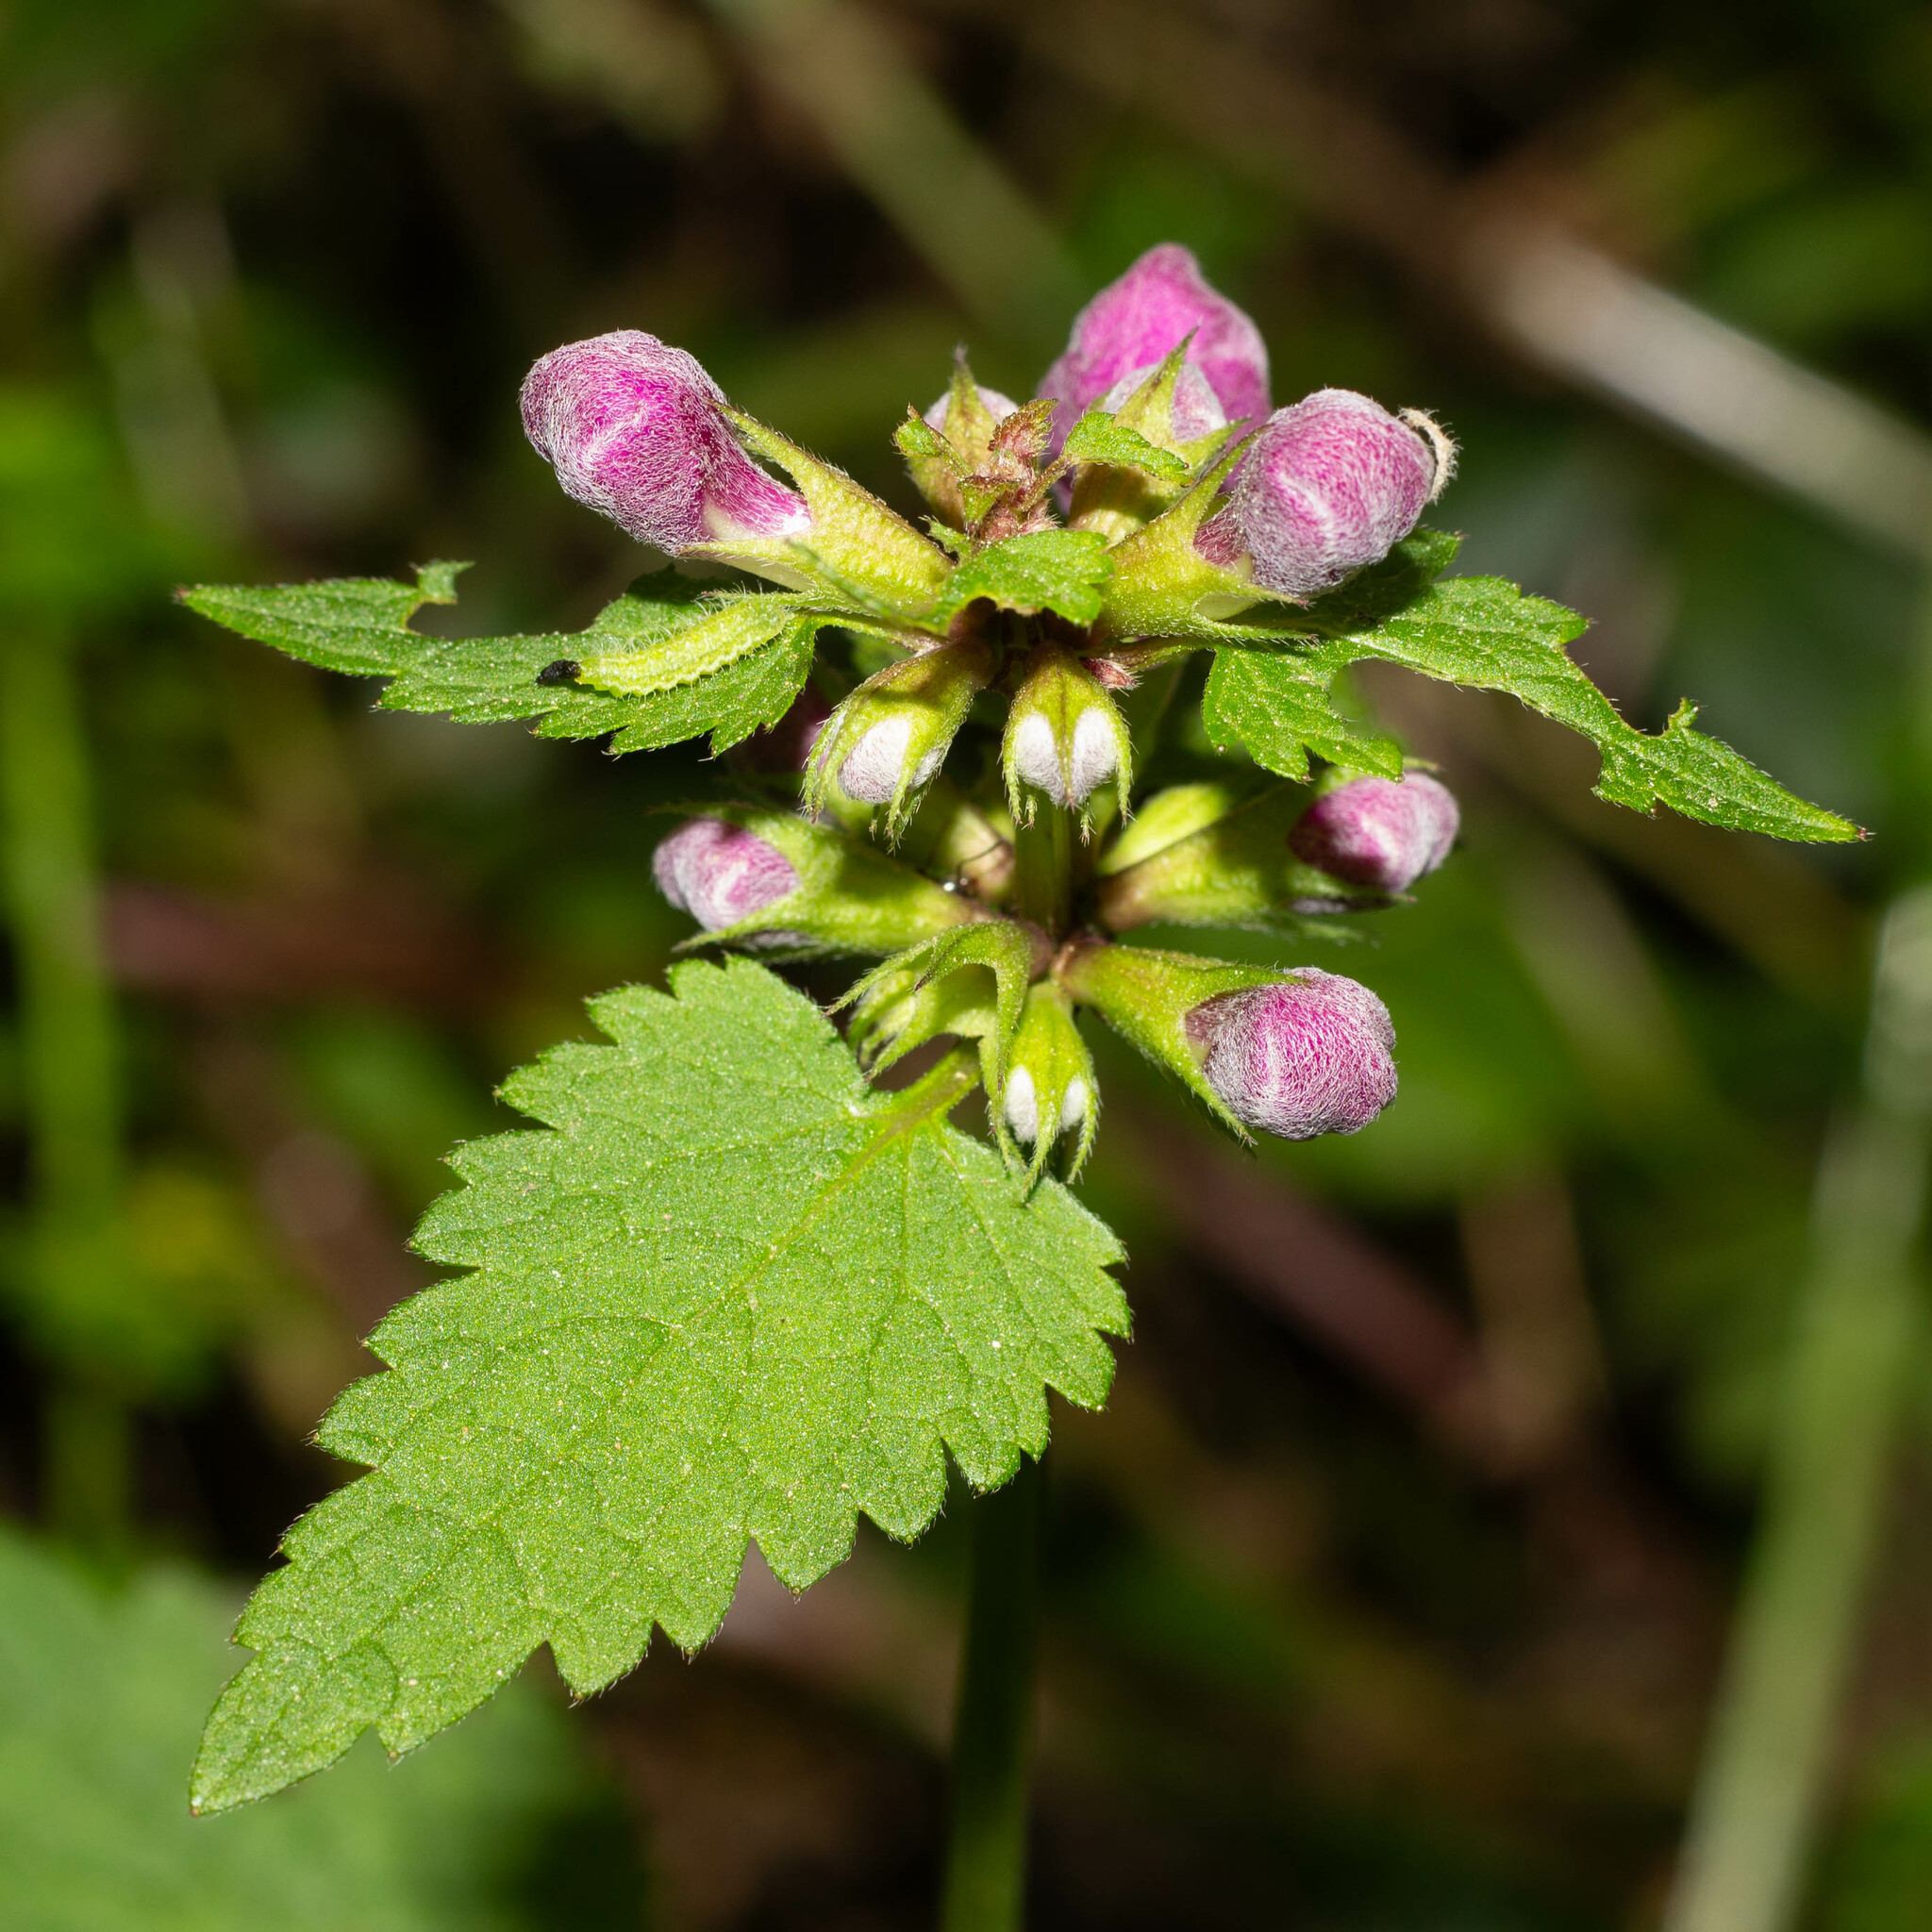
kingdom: Plantae
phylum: Tracheophyta
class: Magnoliopsida
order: Lamiales
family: Lamiaceae
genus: Lamium
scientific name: Lamium maculatum
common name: Spotted dead-nettle
